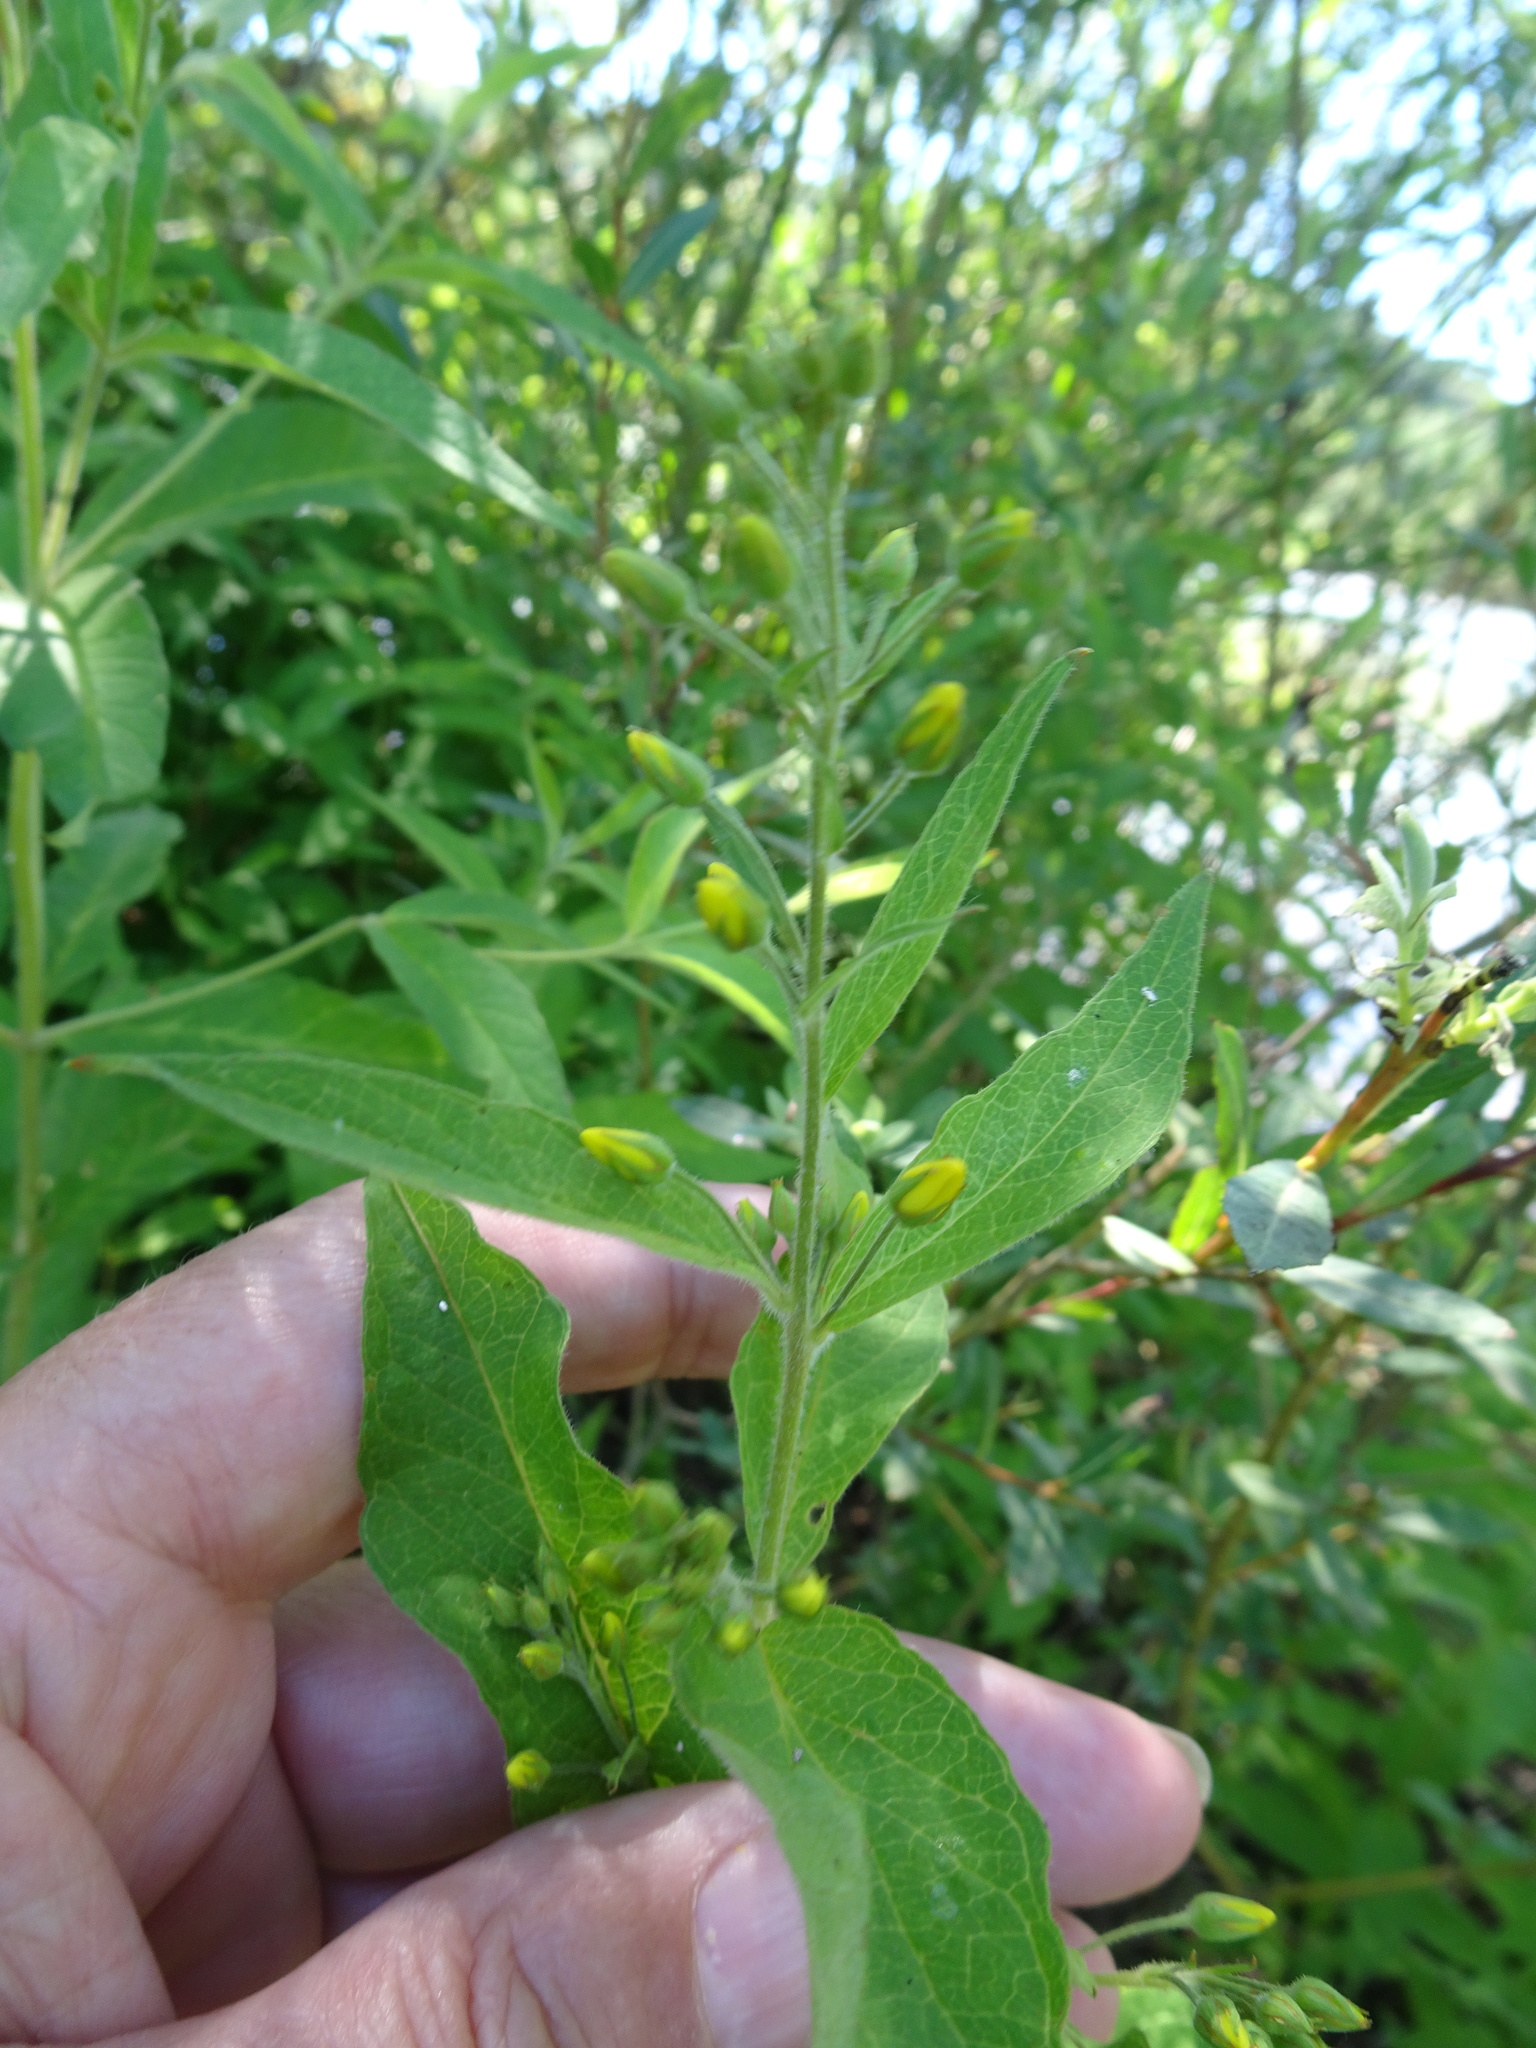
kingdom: Plantae
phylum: Tracheophyta
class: Magnoliopsida
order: Ericales
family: Primulaceae
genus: Lysimachia
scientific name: Lysimachia vulgaris
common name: Yellow loosestrife
